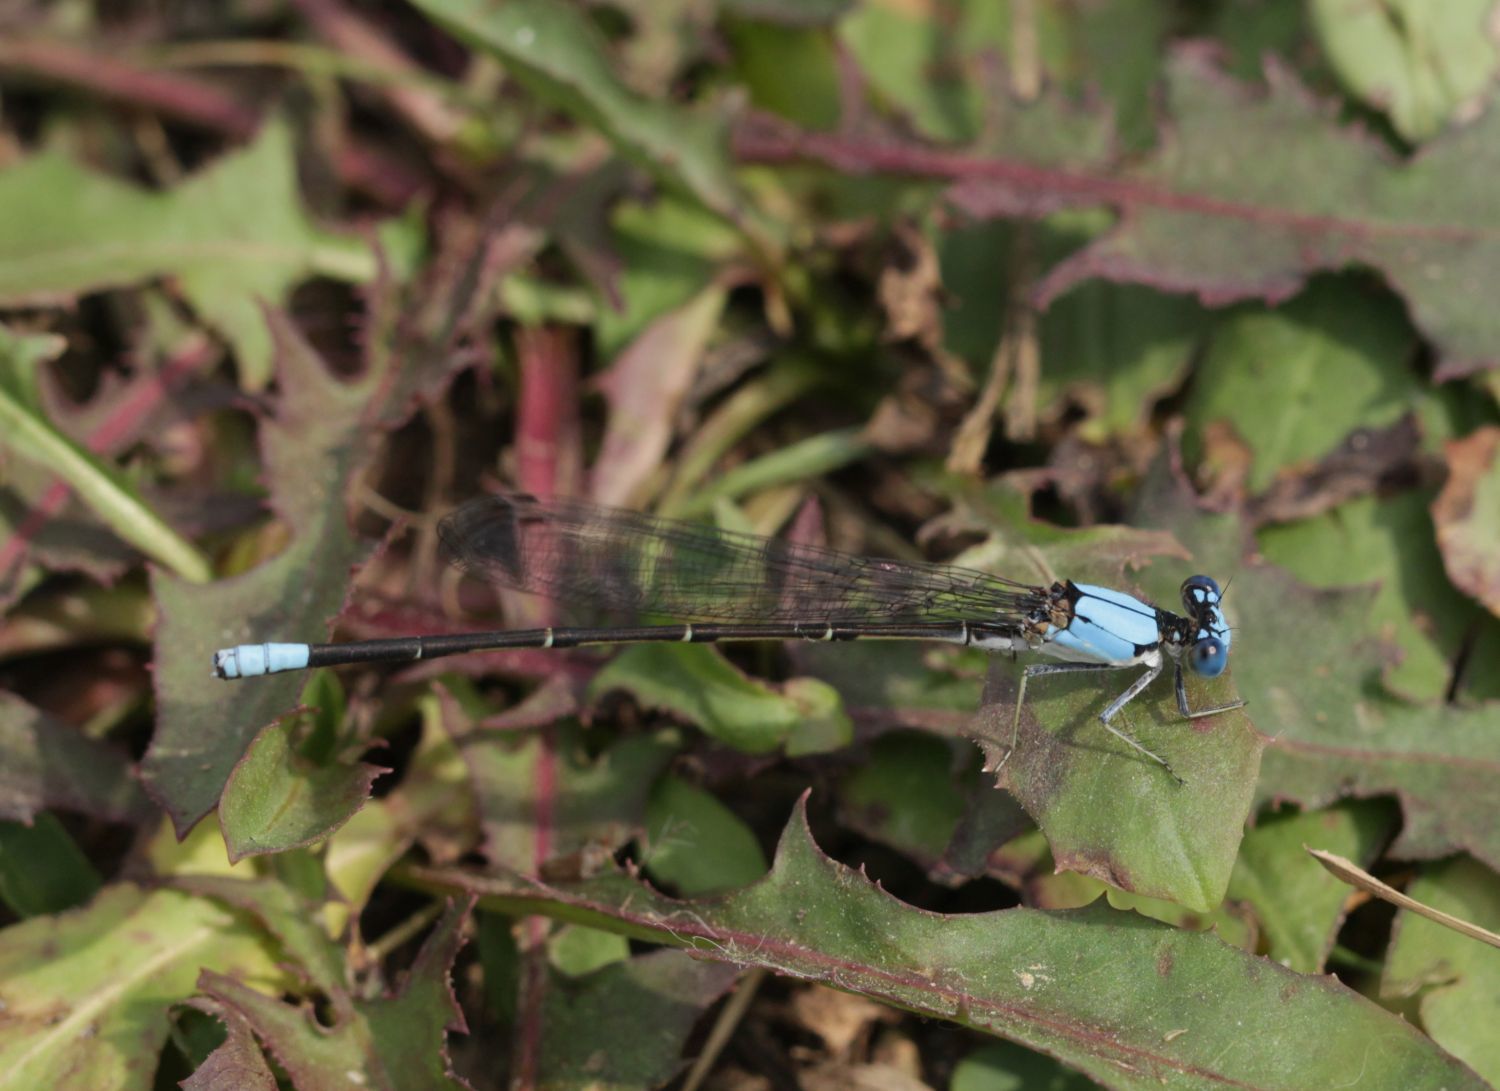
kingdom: Animalia
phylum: Arthropoda
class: Insecta
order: Odonata
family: Coenagrionidae
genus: Argia
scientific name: Argia apicalis
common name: Blue-fronted dancer
